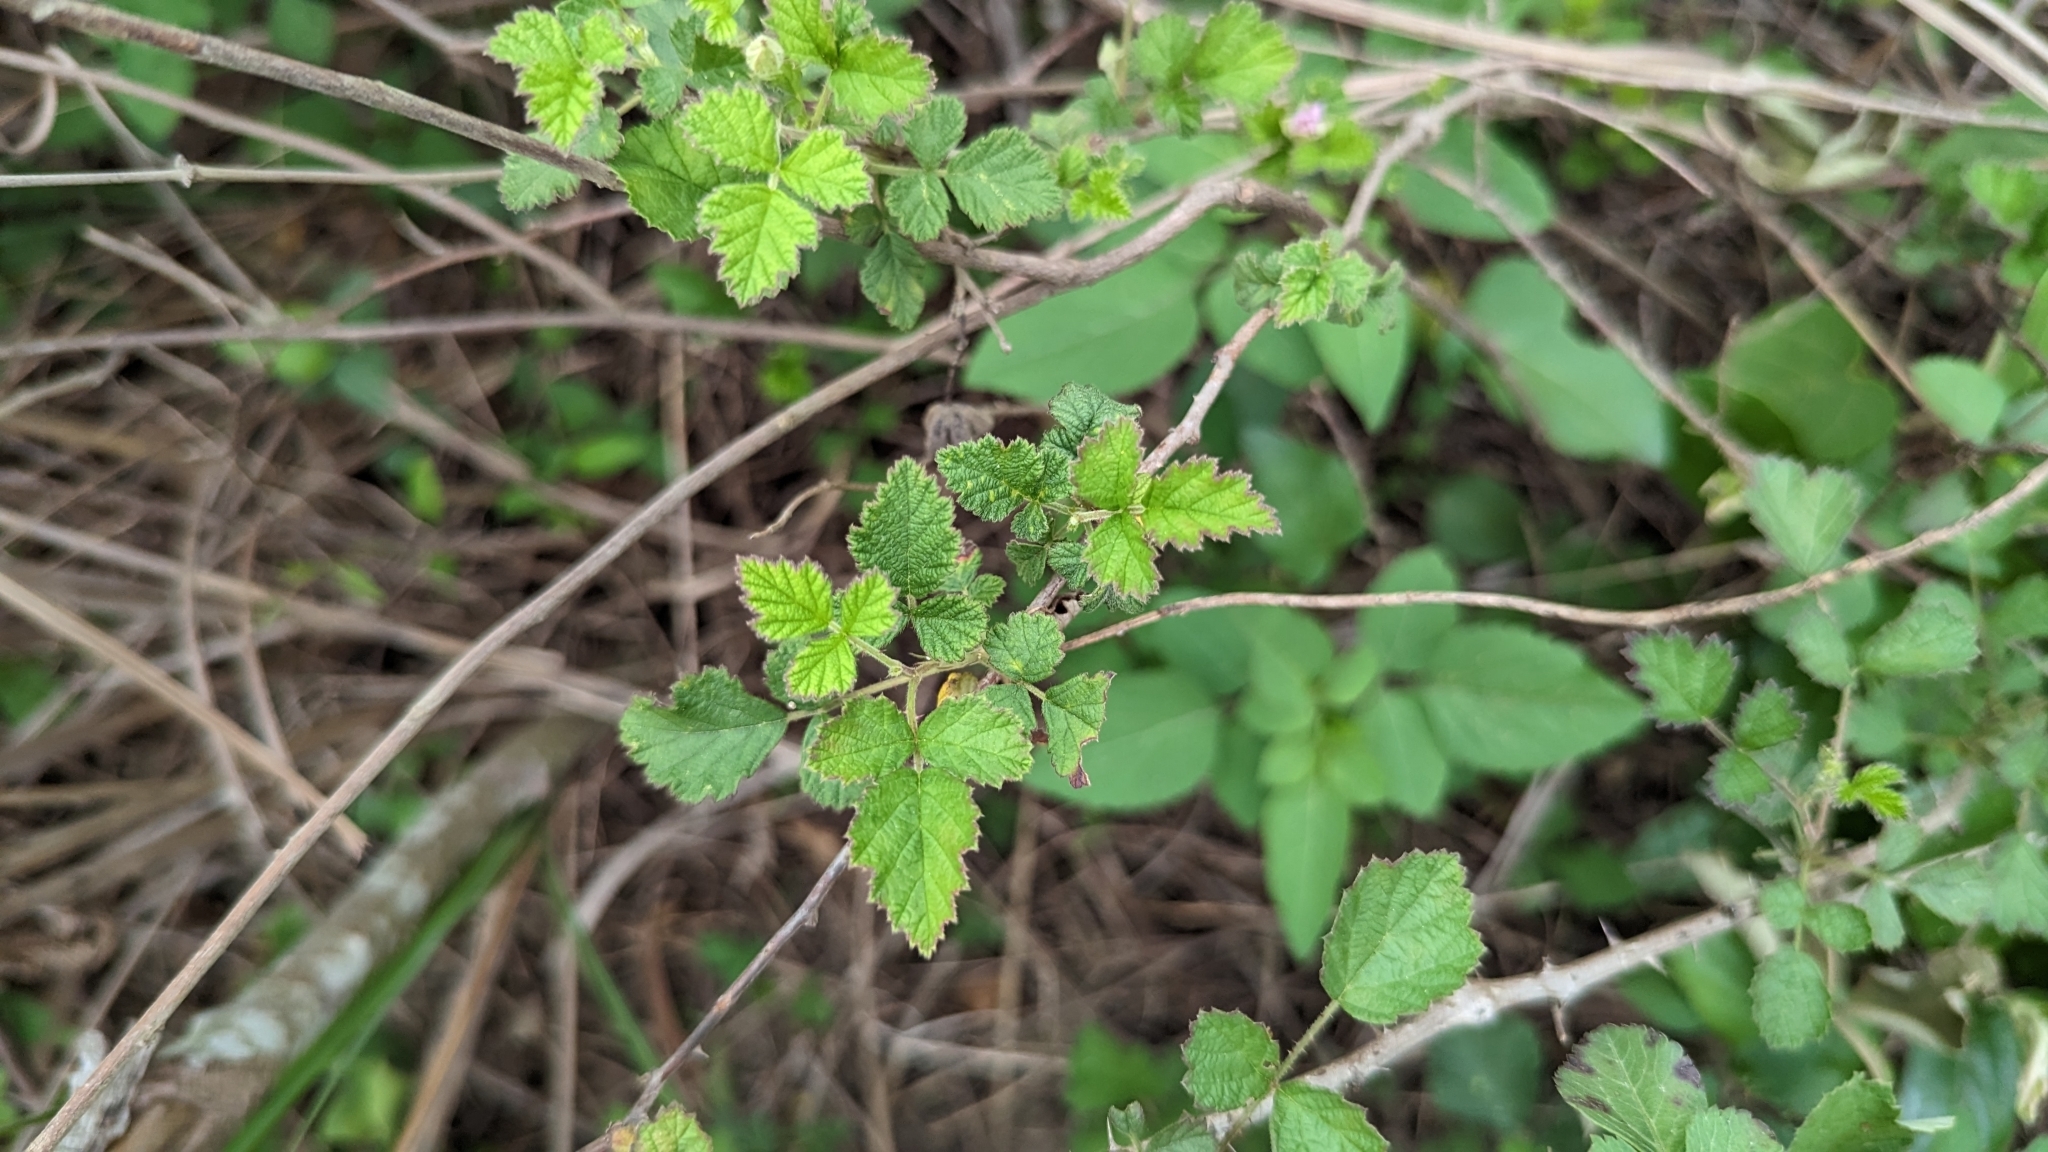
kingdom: Plantae
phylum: Tracheophyta
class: Magnoliopsida
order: Rosales
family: Rosaceae
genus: Rubus
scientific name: Rubus parvifolius
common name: Threeleaf blackberry
